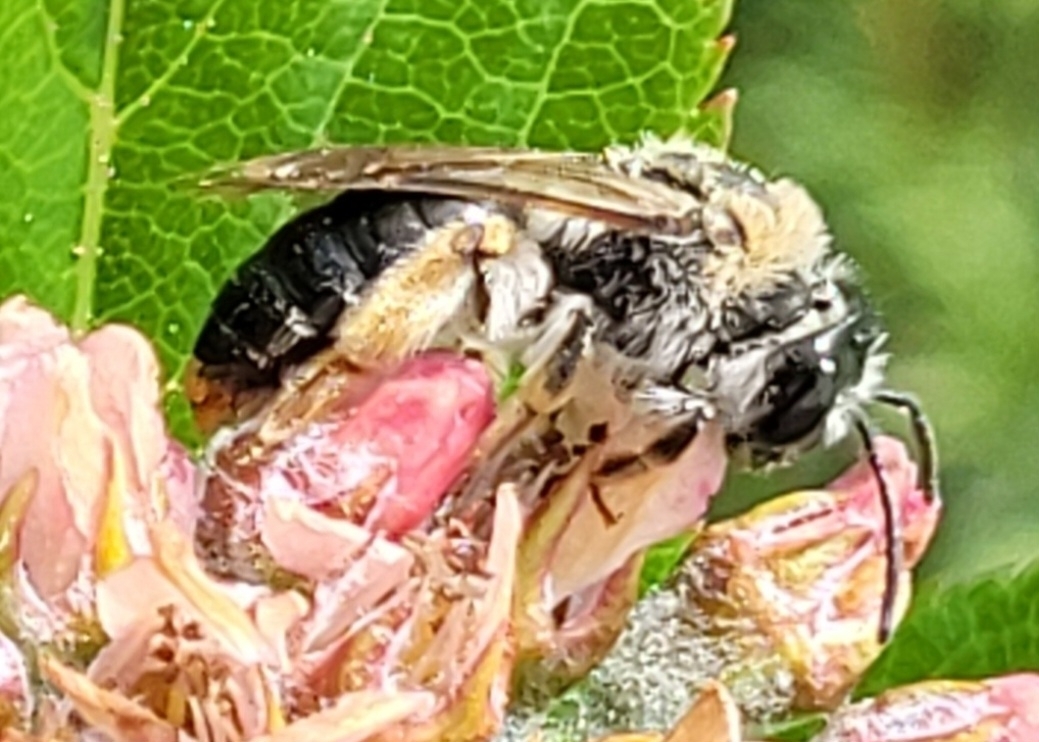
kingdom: Animalia
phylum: Arthropoda
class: Insecta
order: Hymenoptera
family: Andrenidae
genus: Andrena
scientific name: Andrena haemorrhoa
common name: Early mining bee
